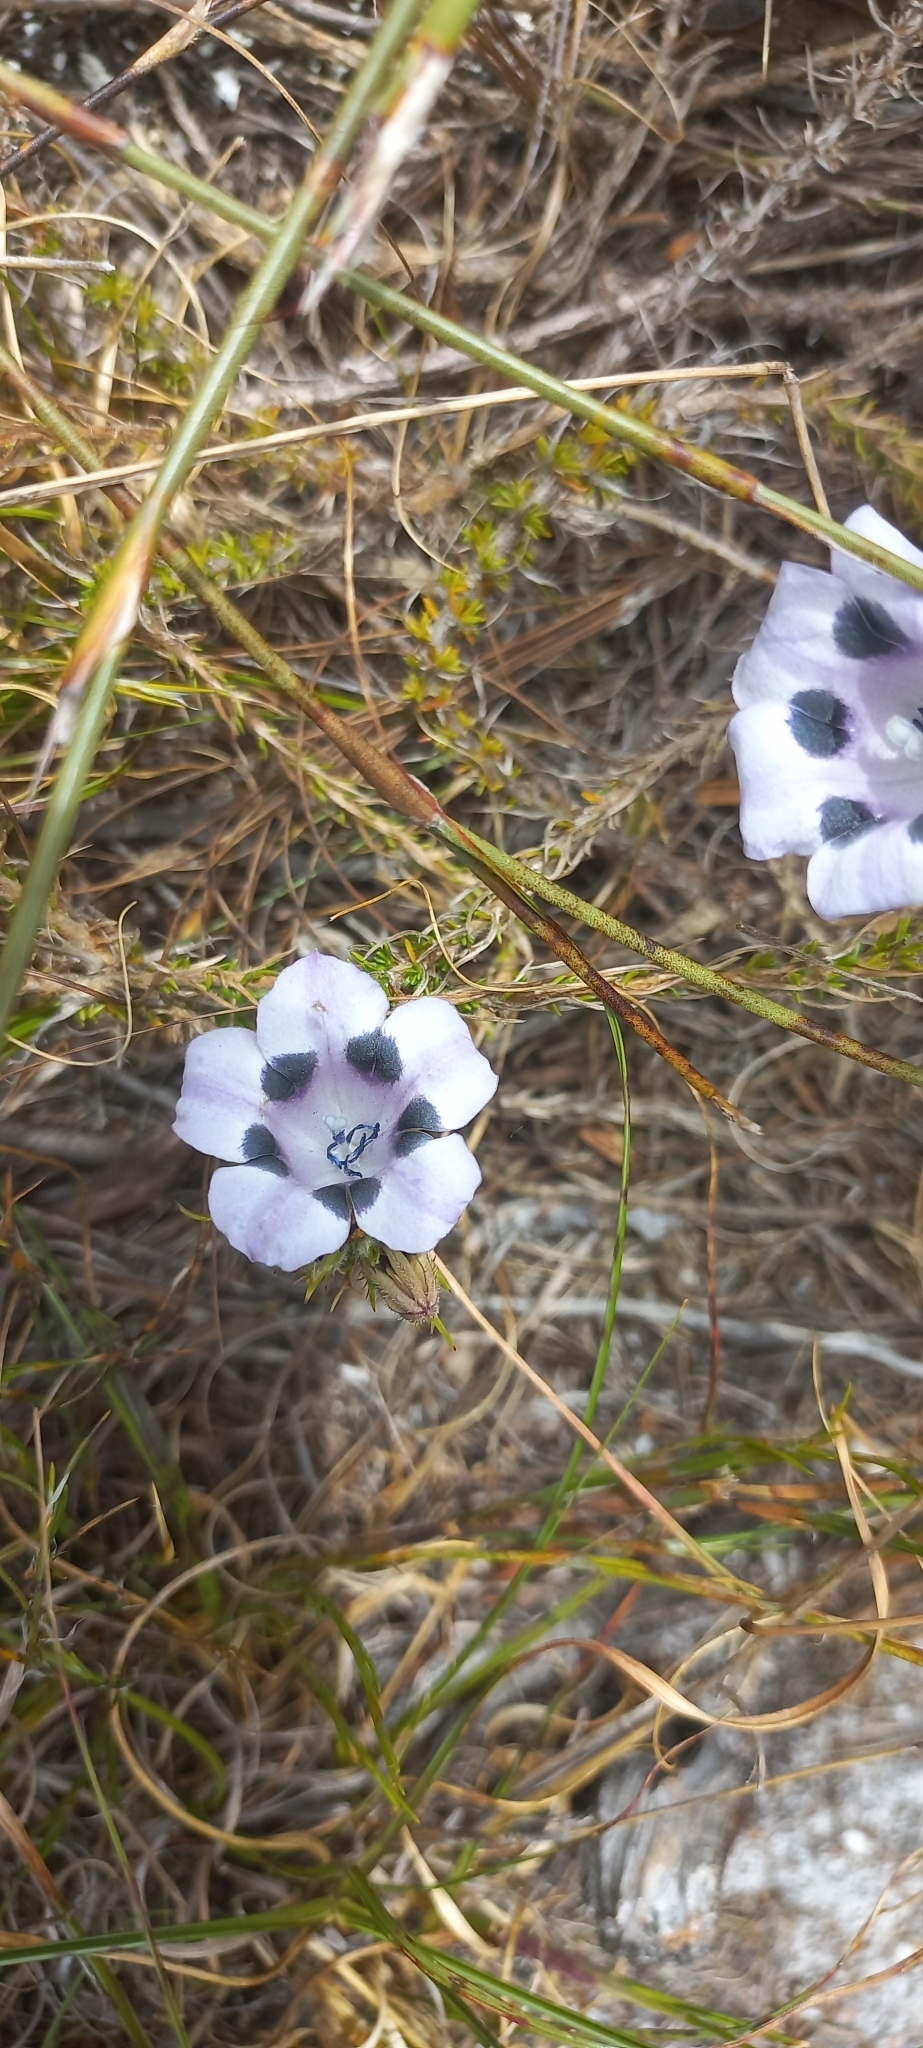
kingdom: Plantae
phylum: Tracheophyta
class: Magnoliopsida
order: Asterales
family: Campanulaceae
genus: Roella
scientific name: Roella maculata
